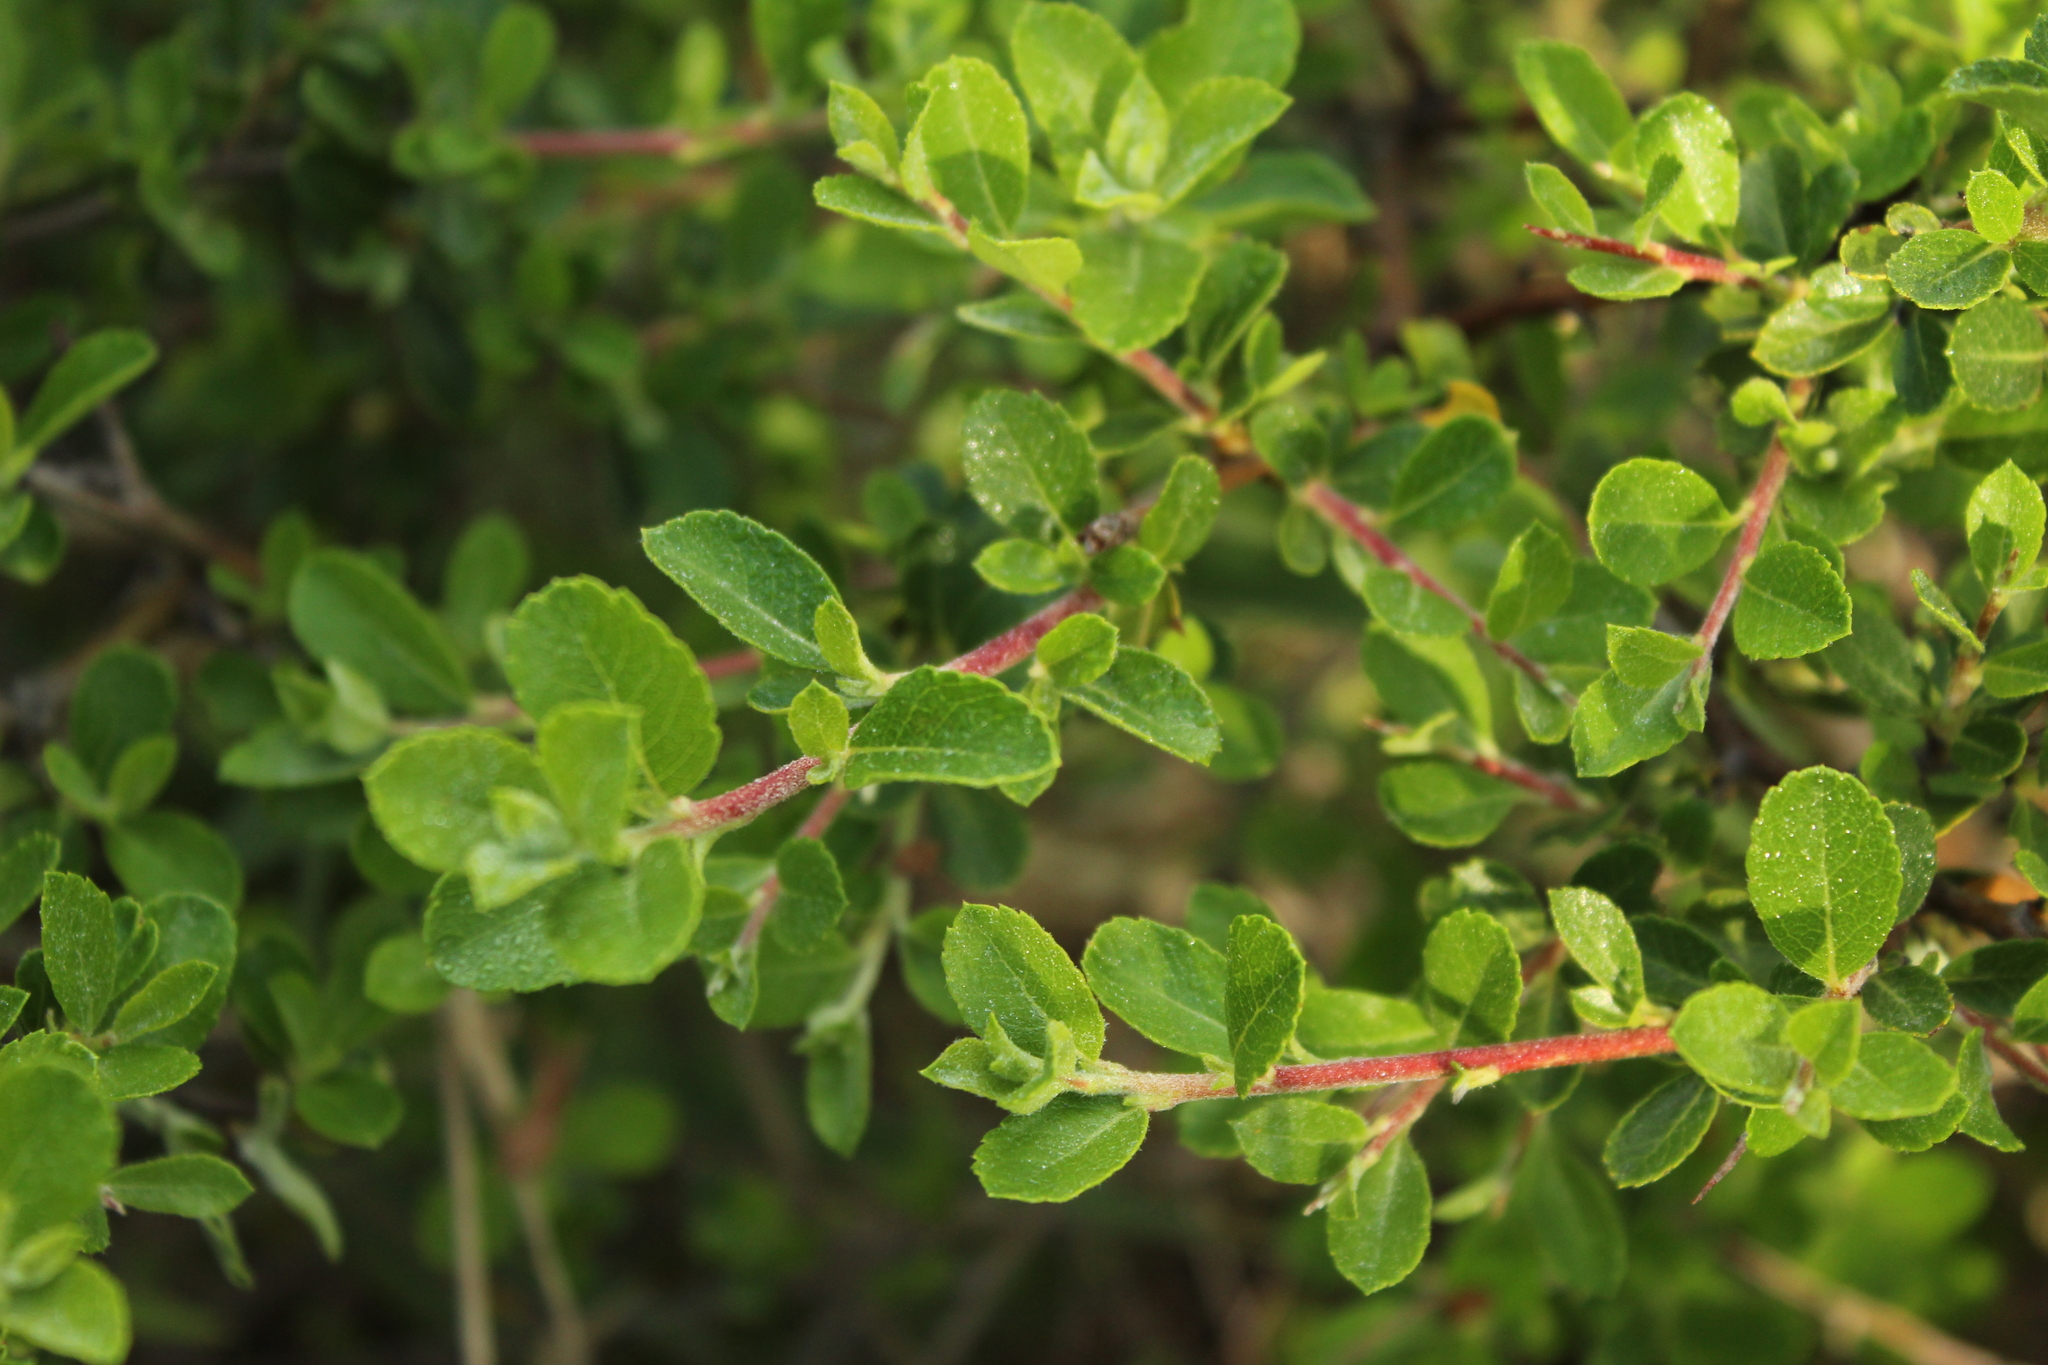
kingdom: Plantae
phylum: Tracheophyta
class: Magnoliopsida
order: Rosales
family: Rosaceae
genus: Hesperomeles
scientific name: Hesperomeles obtusifolia
